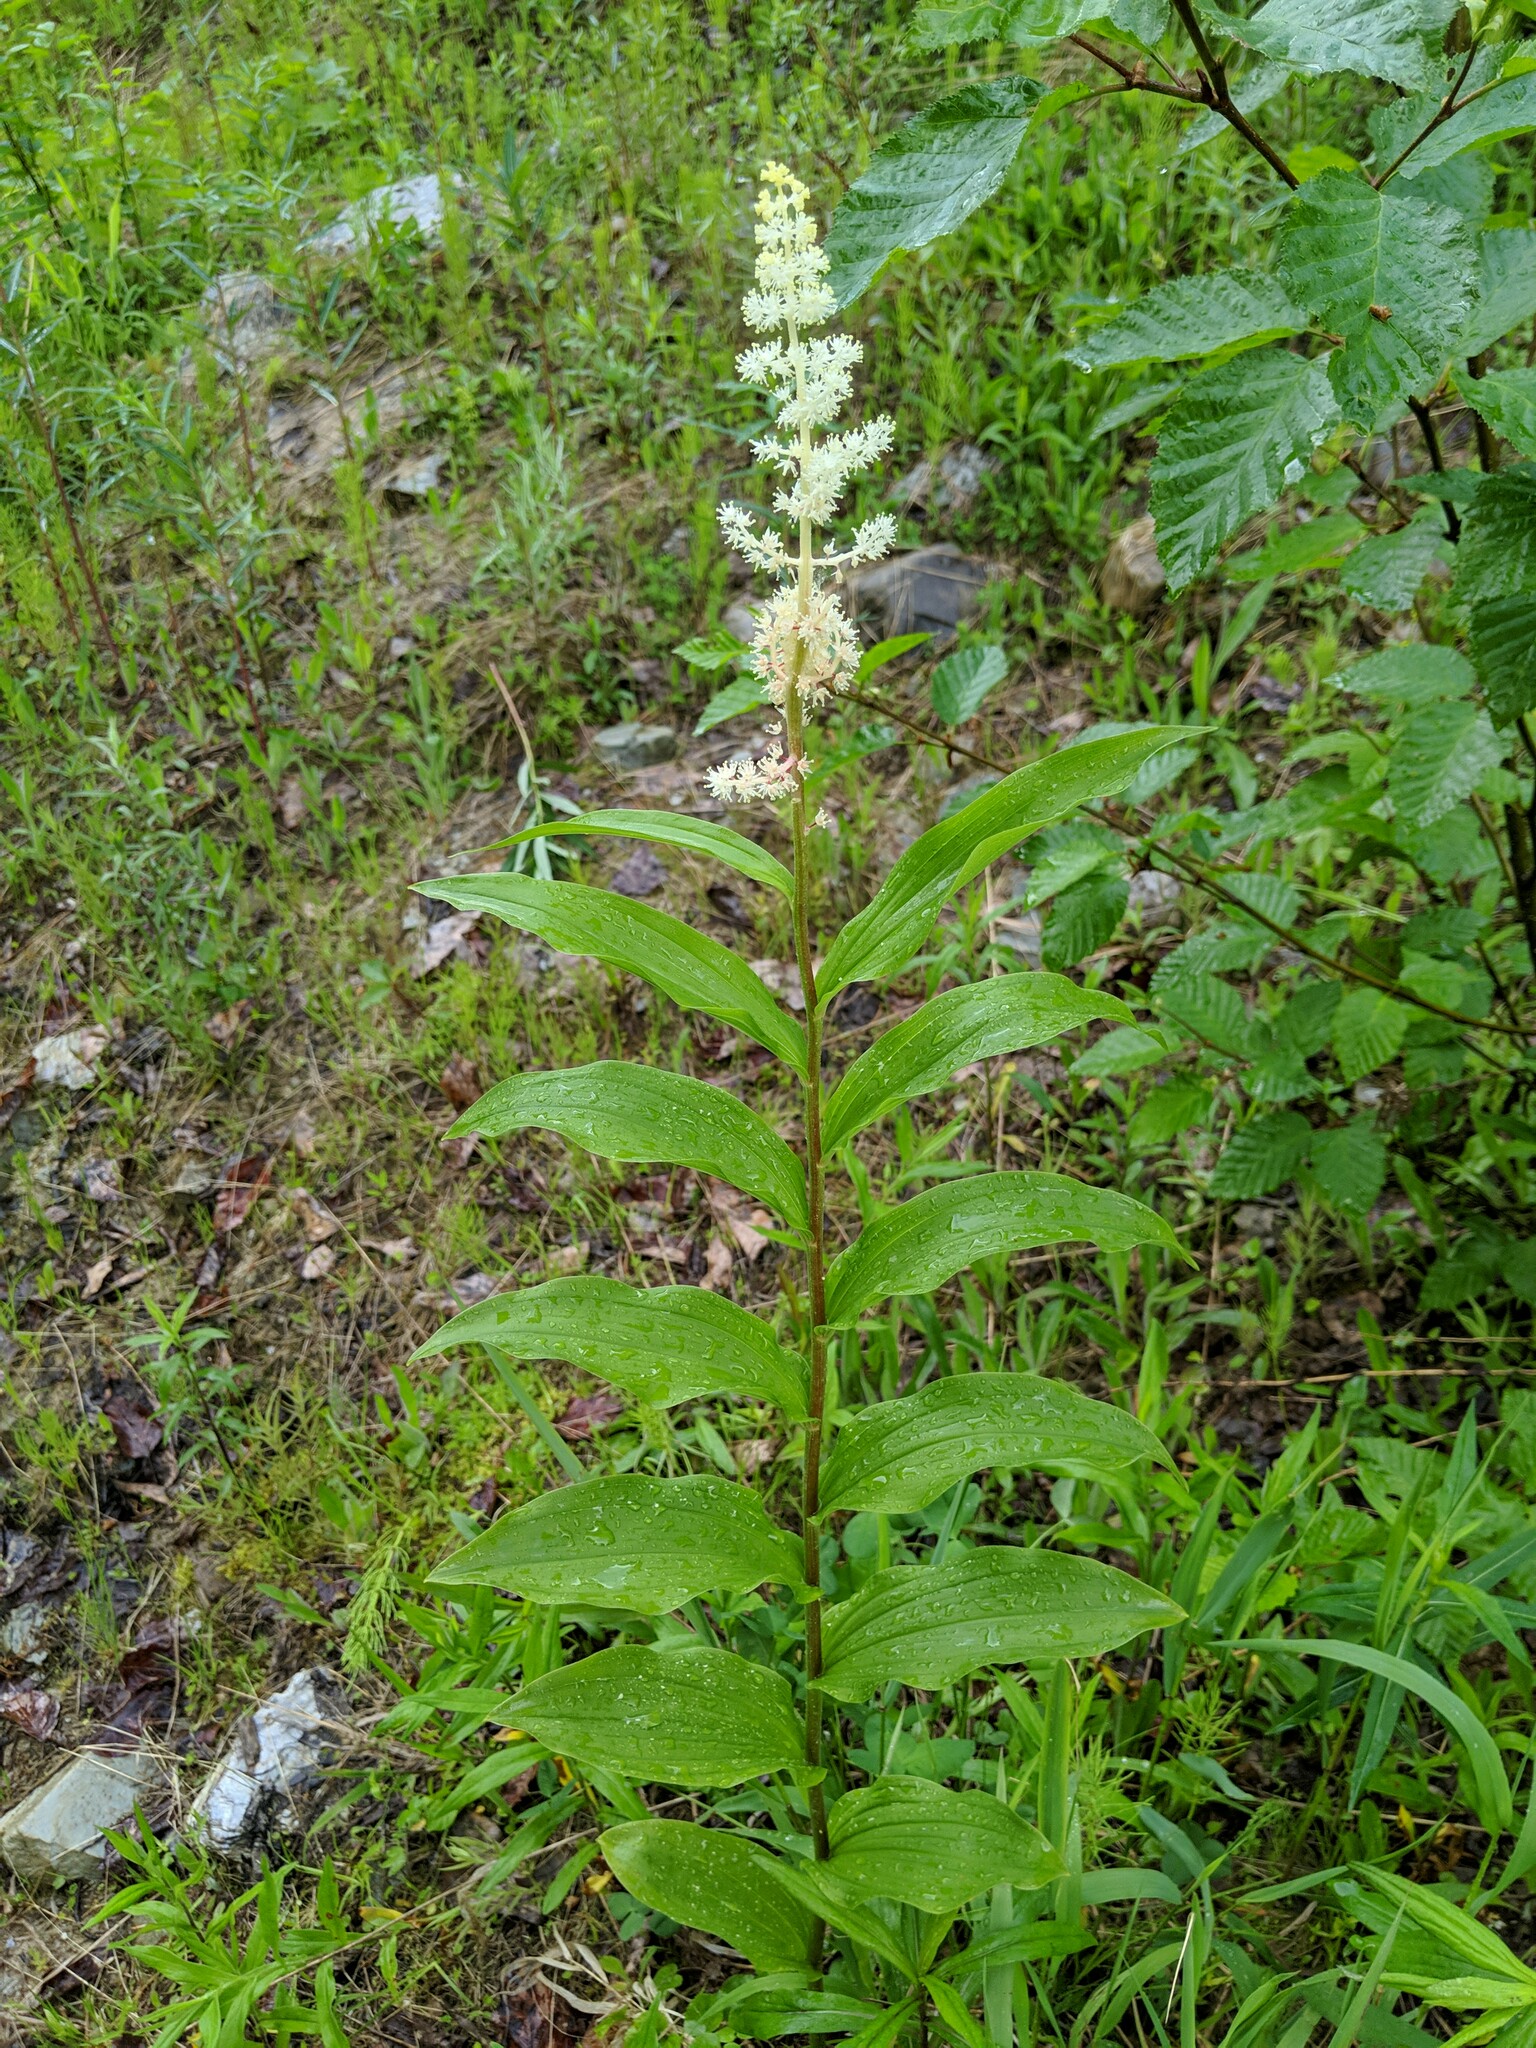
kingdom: Plantae
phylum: Tracheophyta
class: Liliopsida
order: Asparagales
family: Asparagaceae
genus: Maianthemum
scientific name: Maianthemum racemosum
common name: False spikenard
